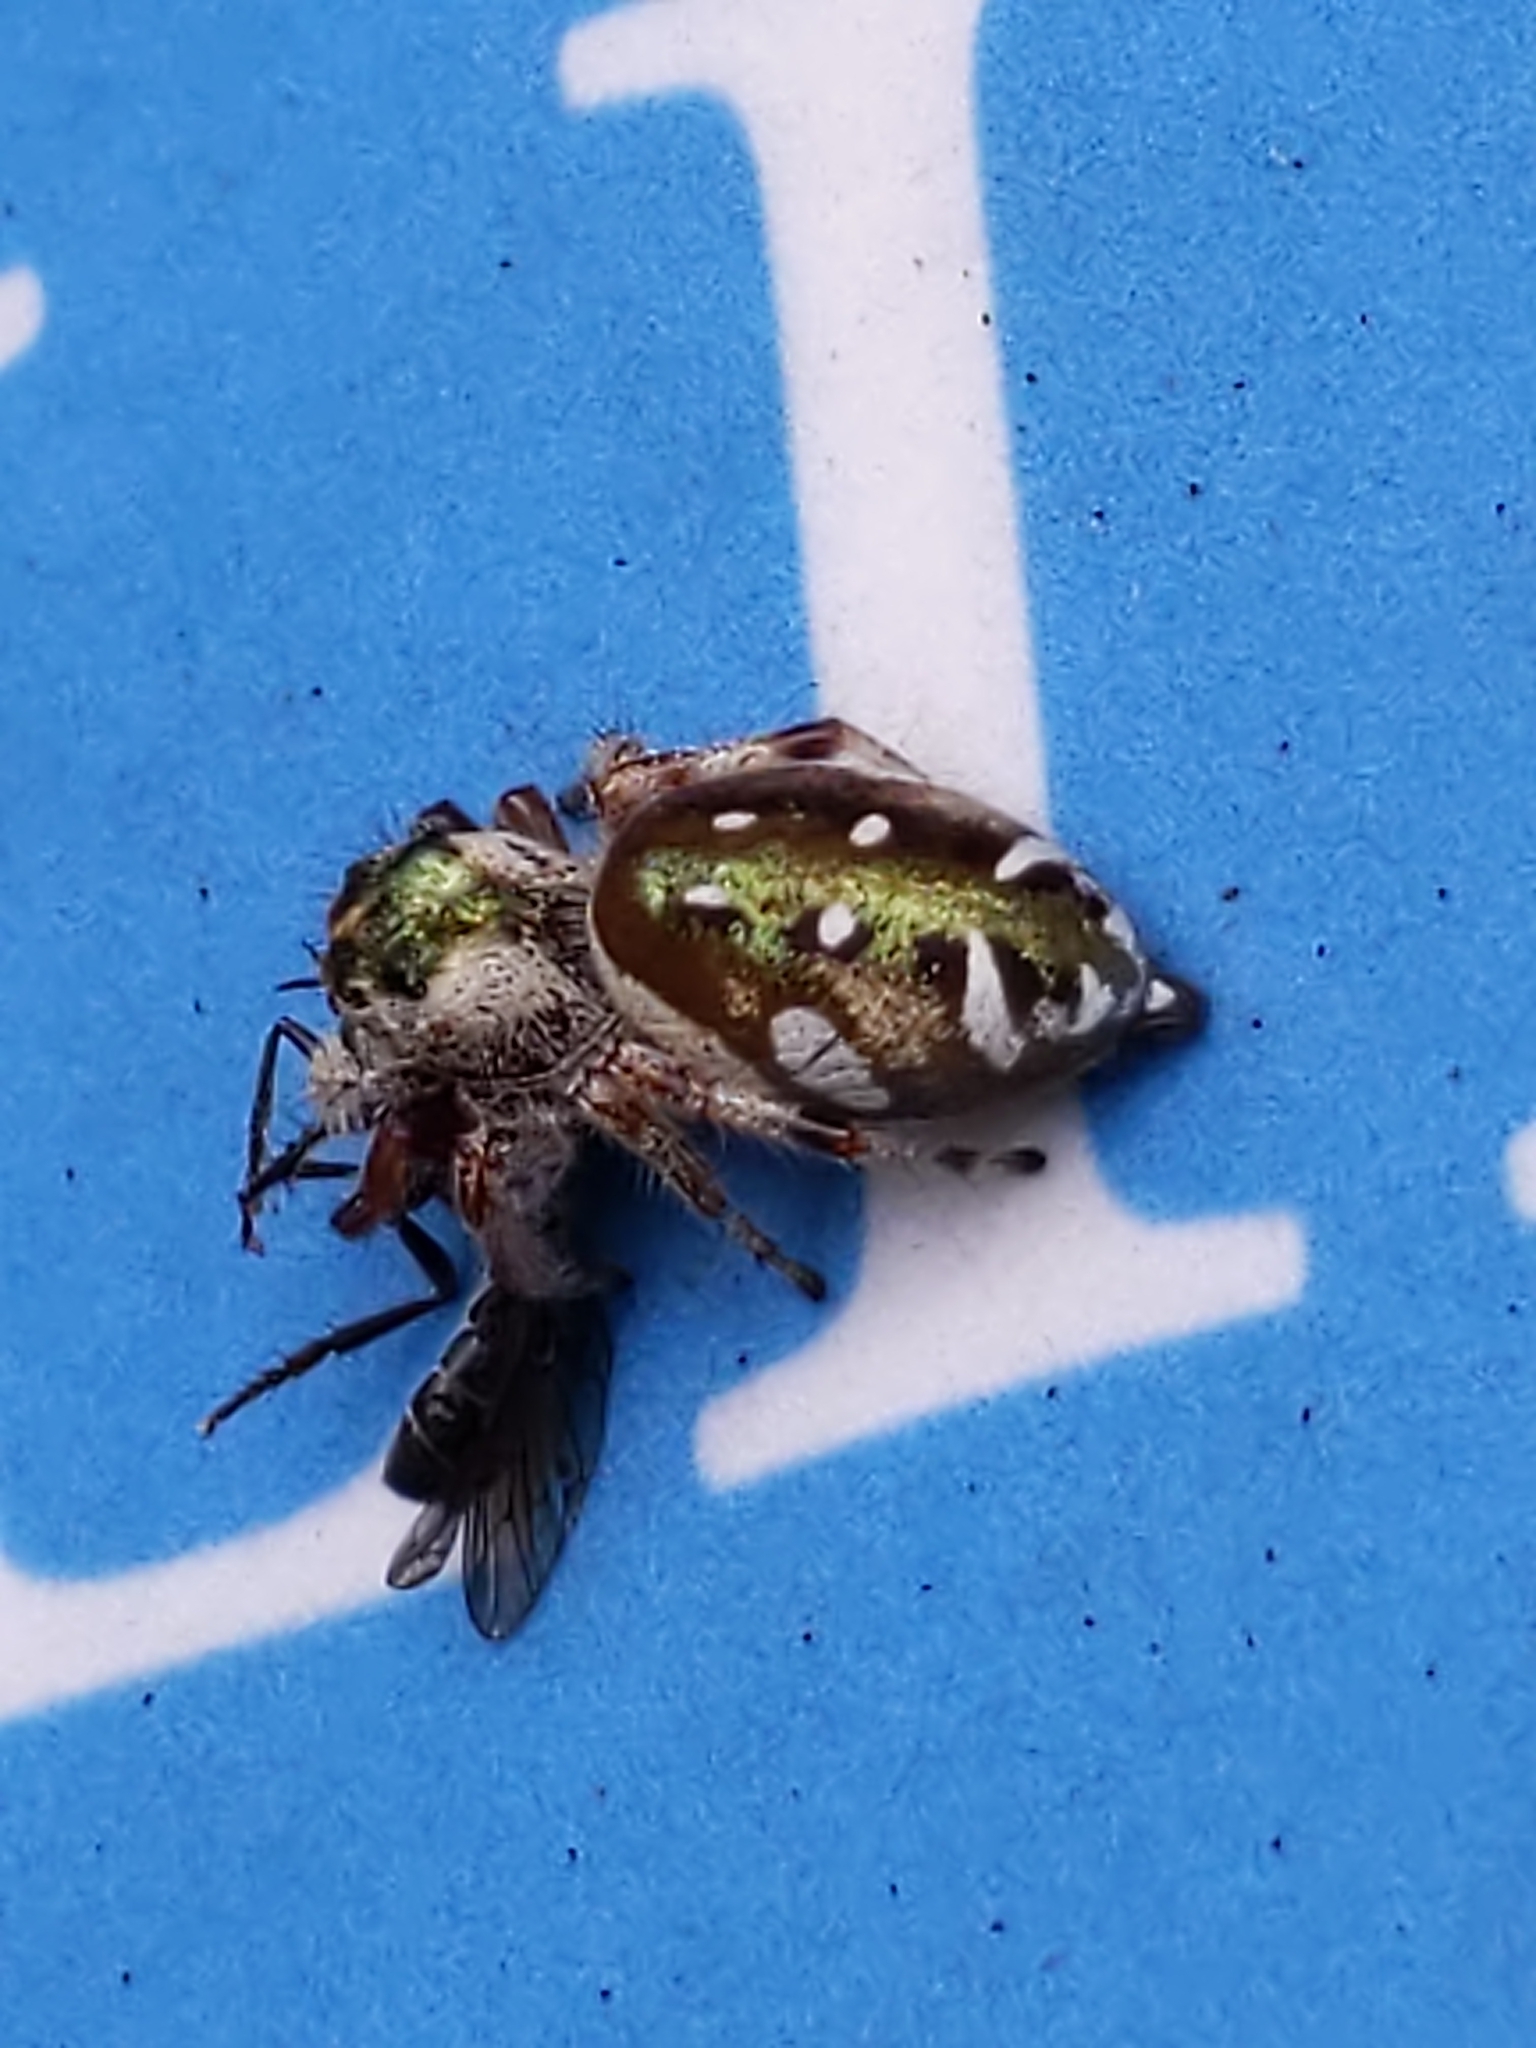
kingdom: Animalia
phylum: Arthropoda
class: Arachnida
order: Araneae
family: Salticidae
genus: Paraphidippus
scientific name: Paraphidippus aurantius
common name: Jumping spiders
